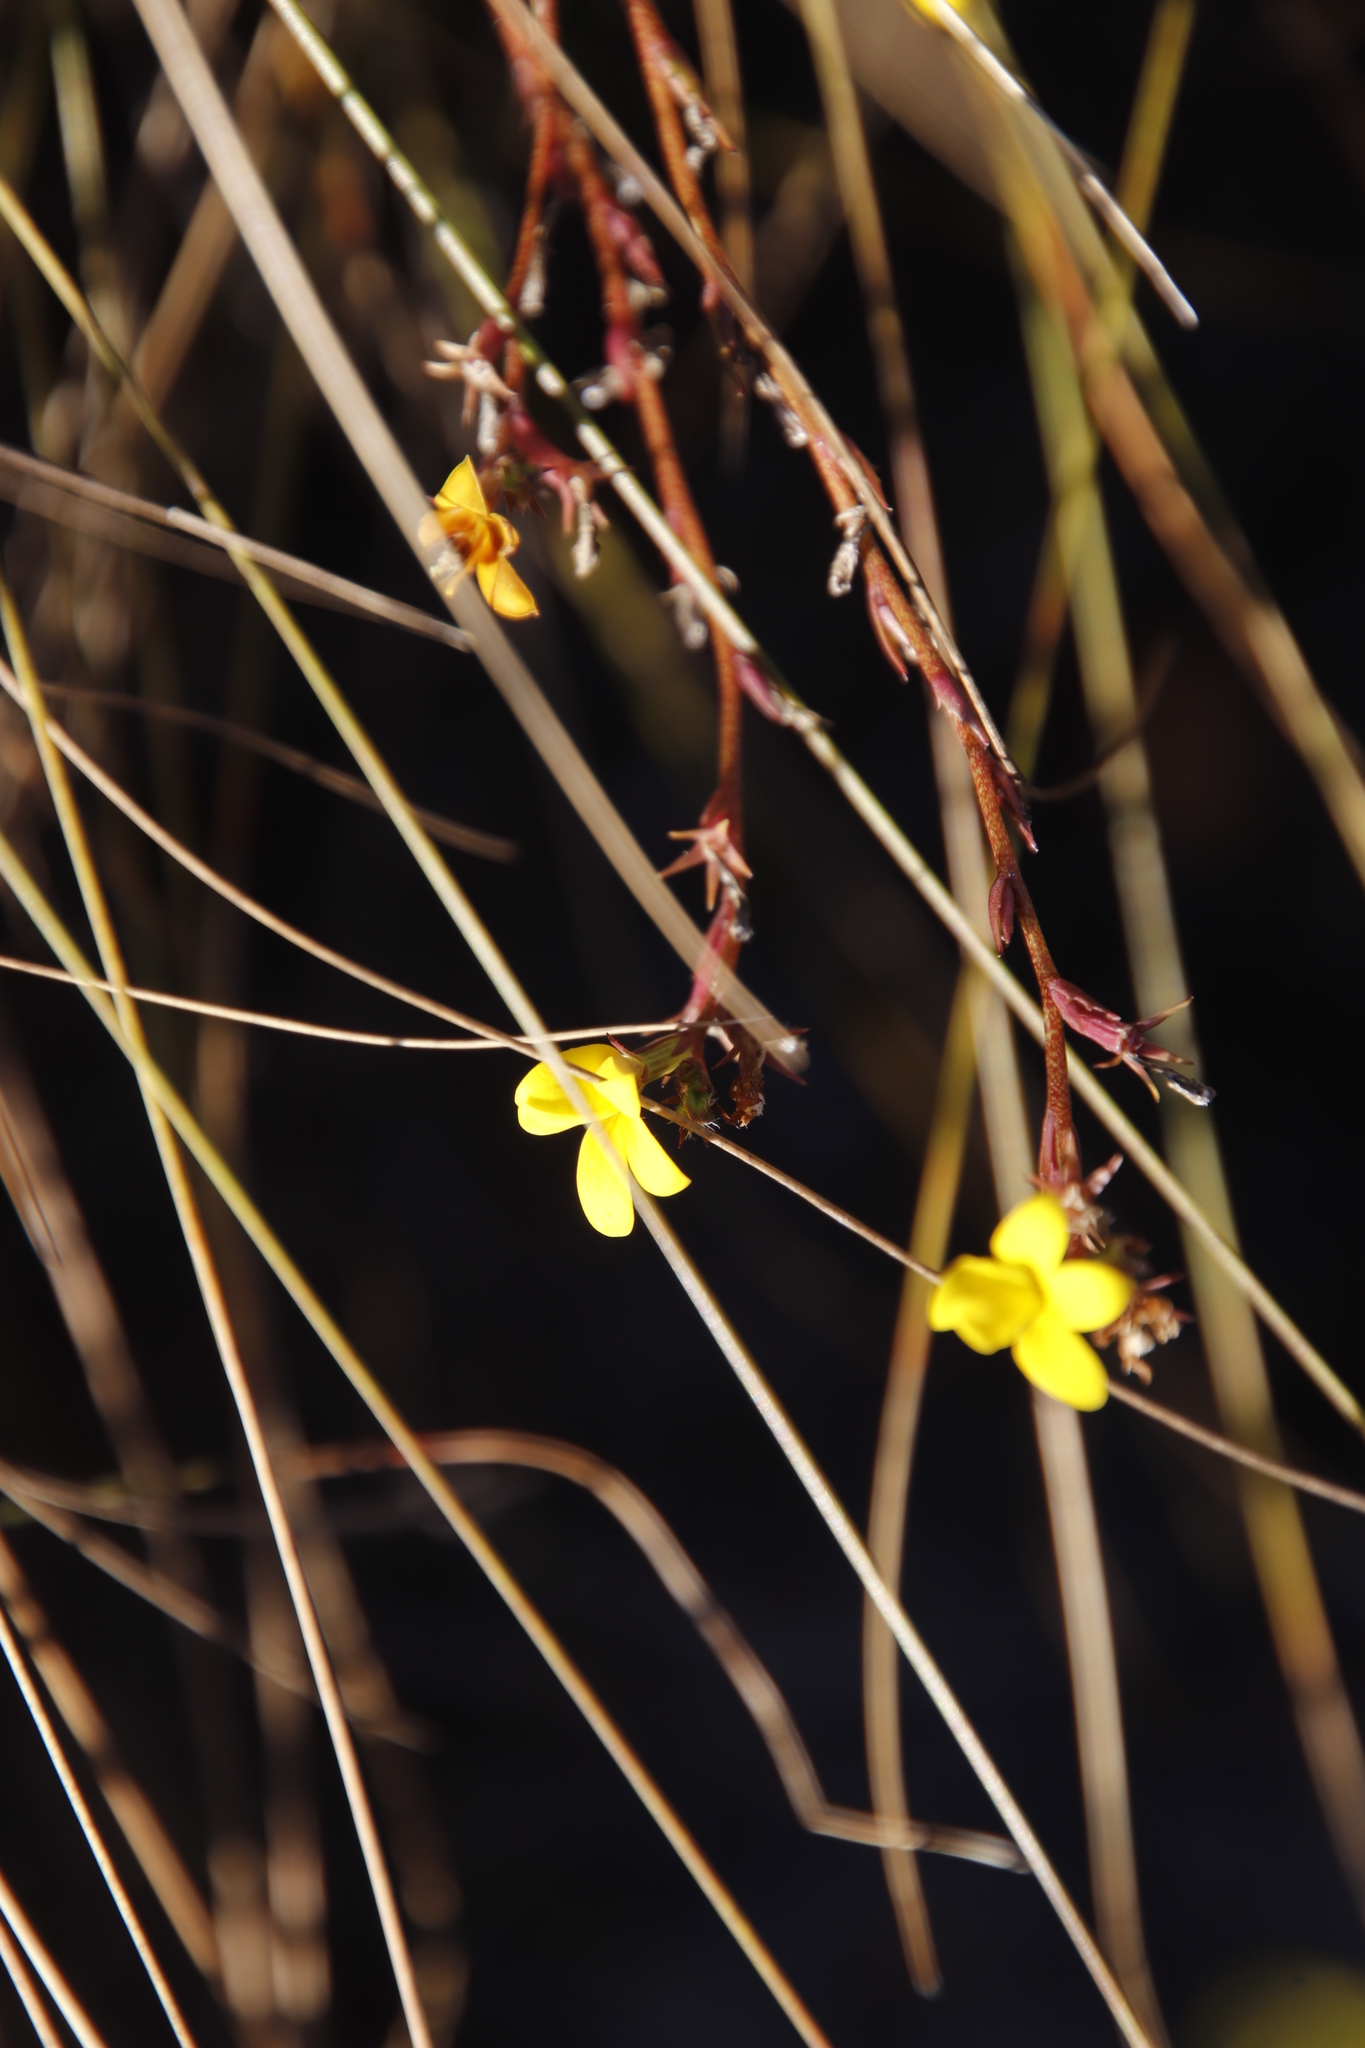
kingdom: Plantae
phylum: Tracheophyta
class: Magnoliopsida
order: Asterales
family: Campanulaceae
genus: Monopsis
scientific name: Monopsis lutea
